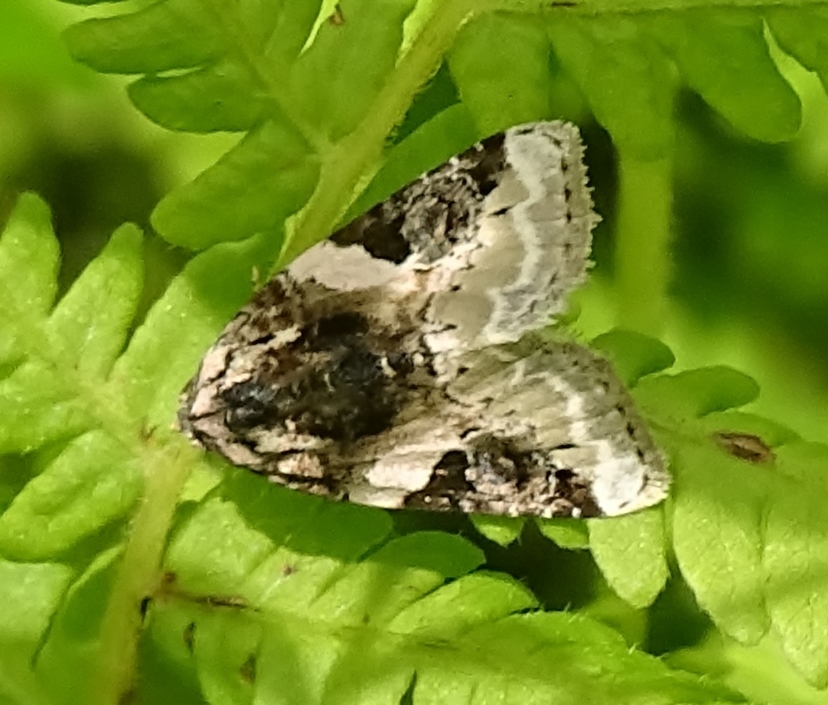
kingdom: Animalia
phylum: Arthropoda
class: Insecta
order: Lepidoptera
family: Noctuidae
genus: Pseudeustrotia
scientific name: Pseudeustrotia carneola
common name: Pink-barred lithacodia moth
